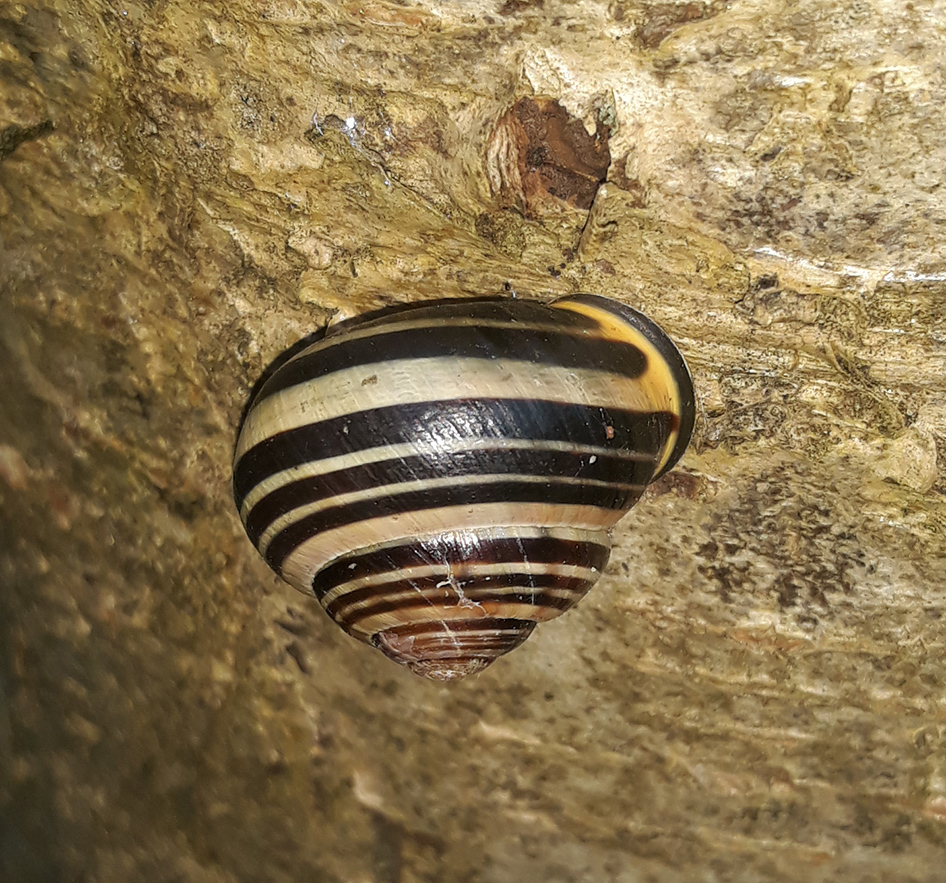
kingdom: Animalia
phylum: Mollusca
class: Gastropoda
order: Stylommatophora
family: Helicidae
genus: Cepaea
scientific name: Cepaea nemoralis
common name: Grovesnail
